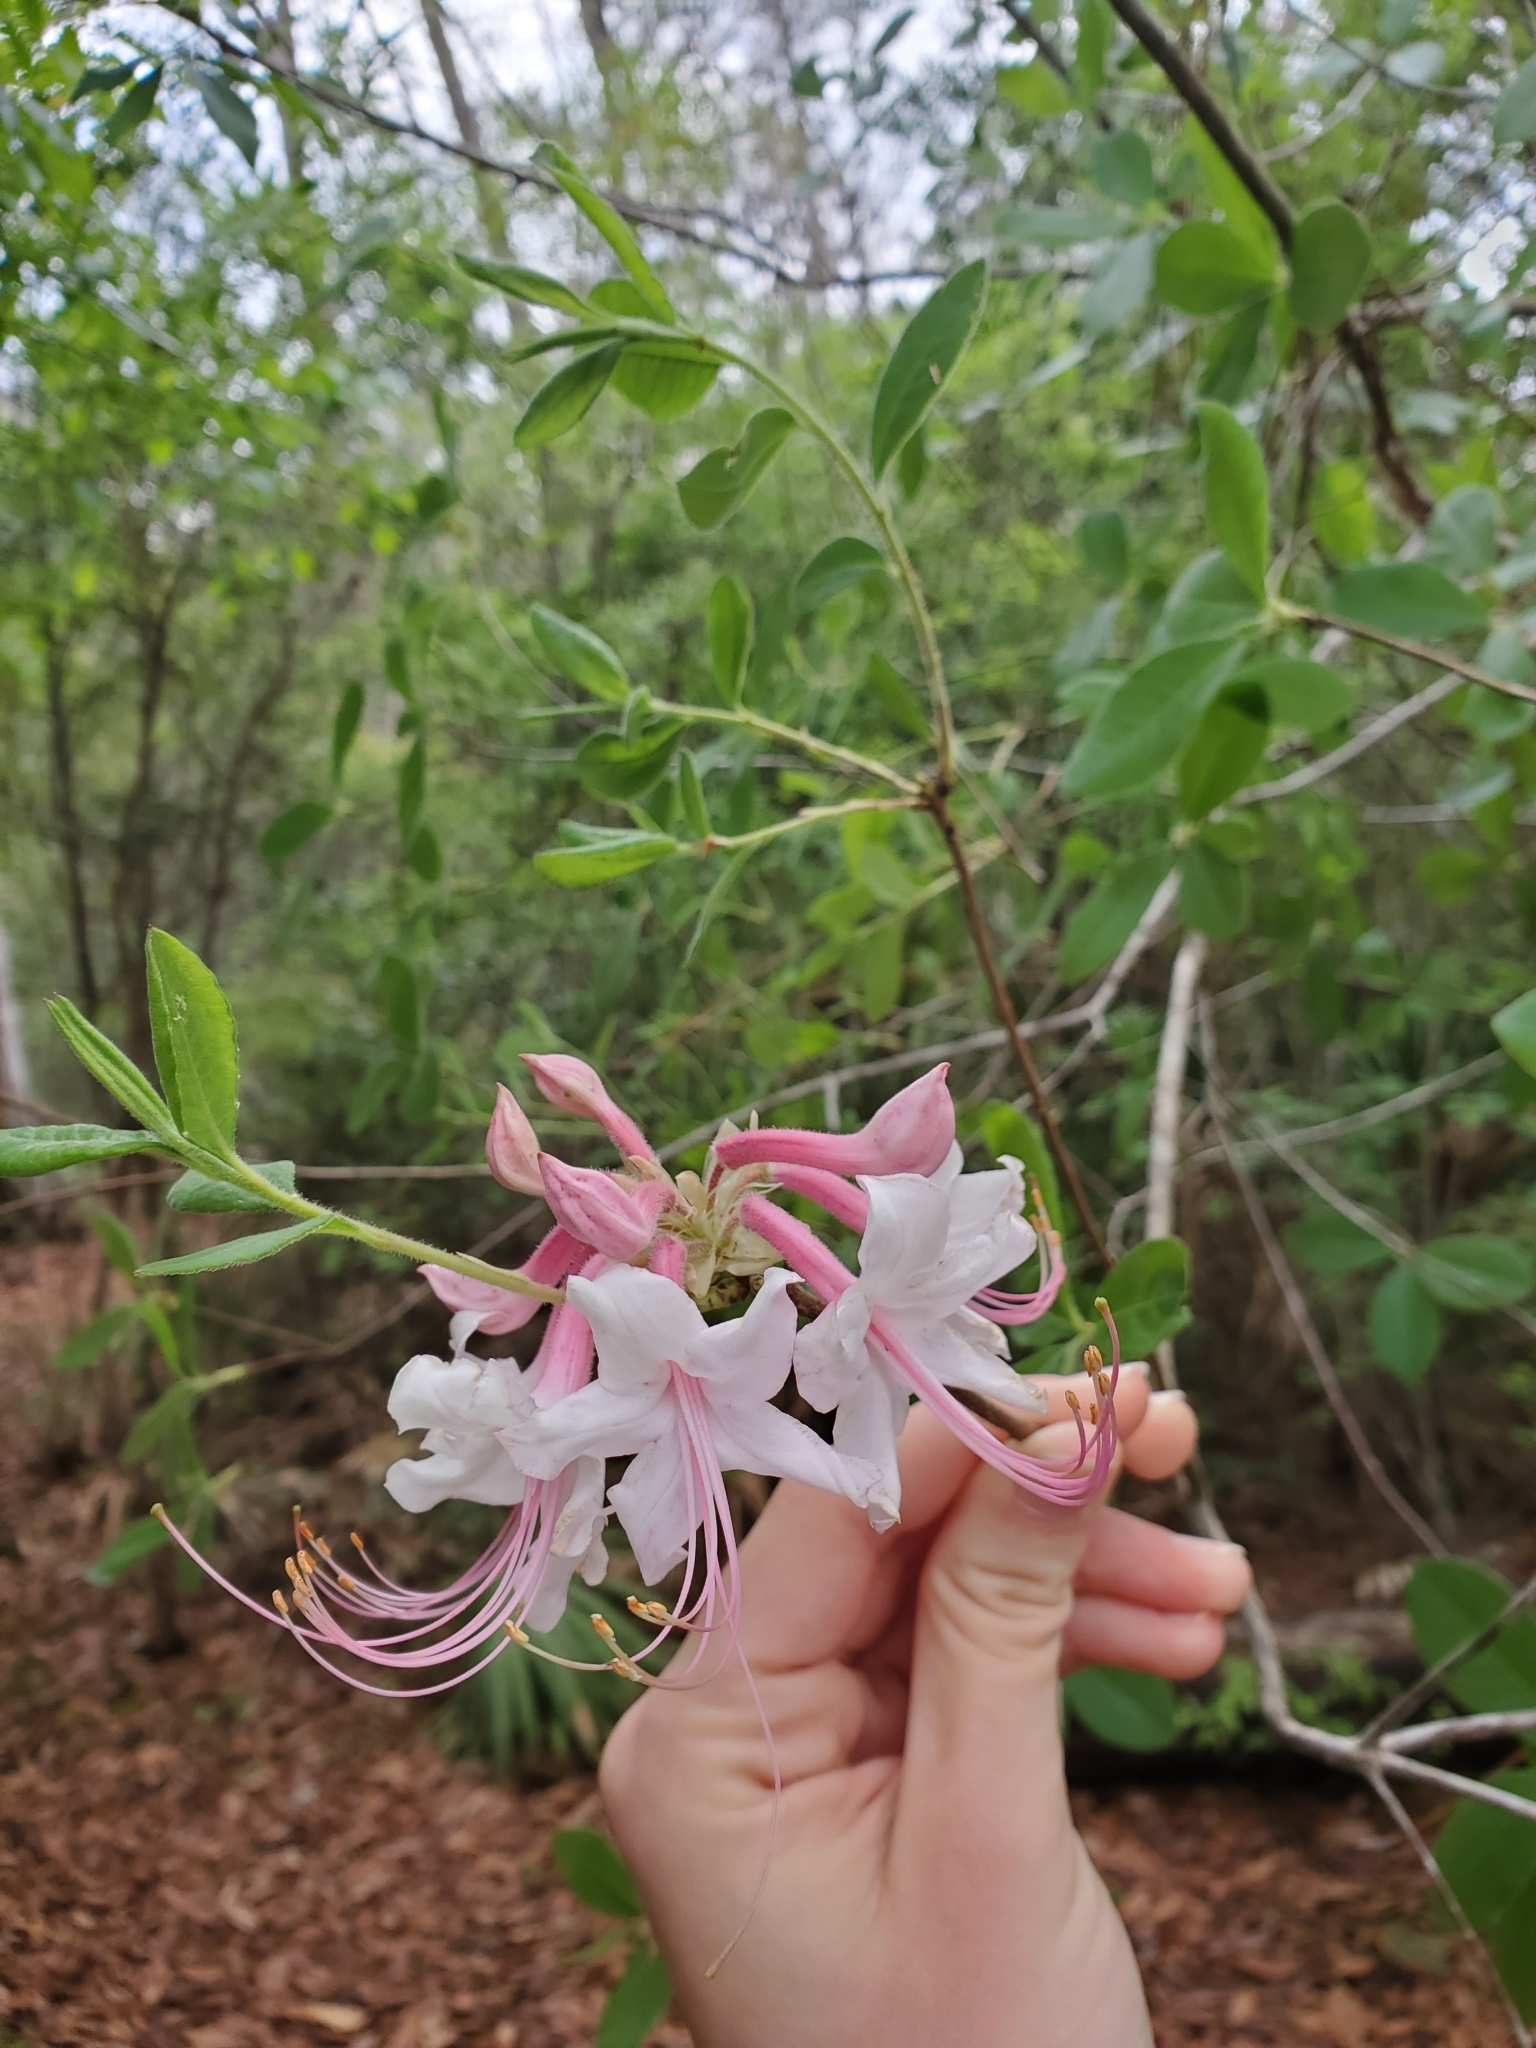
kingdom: Plantae
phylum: Tracheophyta
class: Magnoliopsida
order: Ericales
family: Ericaceae
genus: Rhododendron
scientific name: Rhododendron canescens
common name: Mountain azalea
